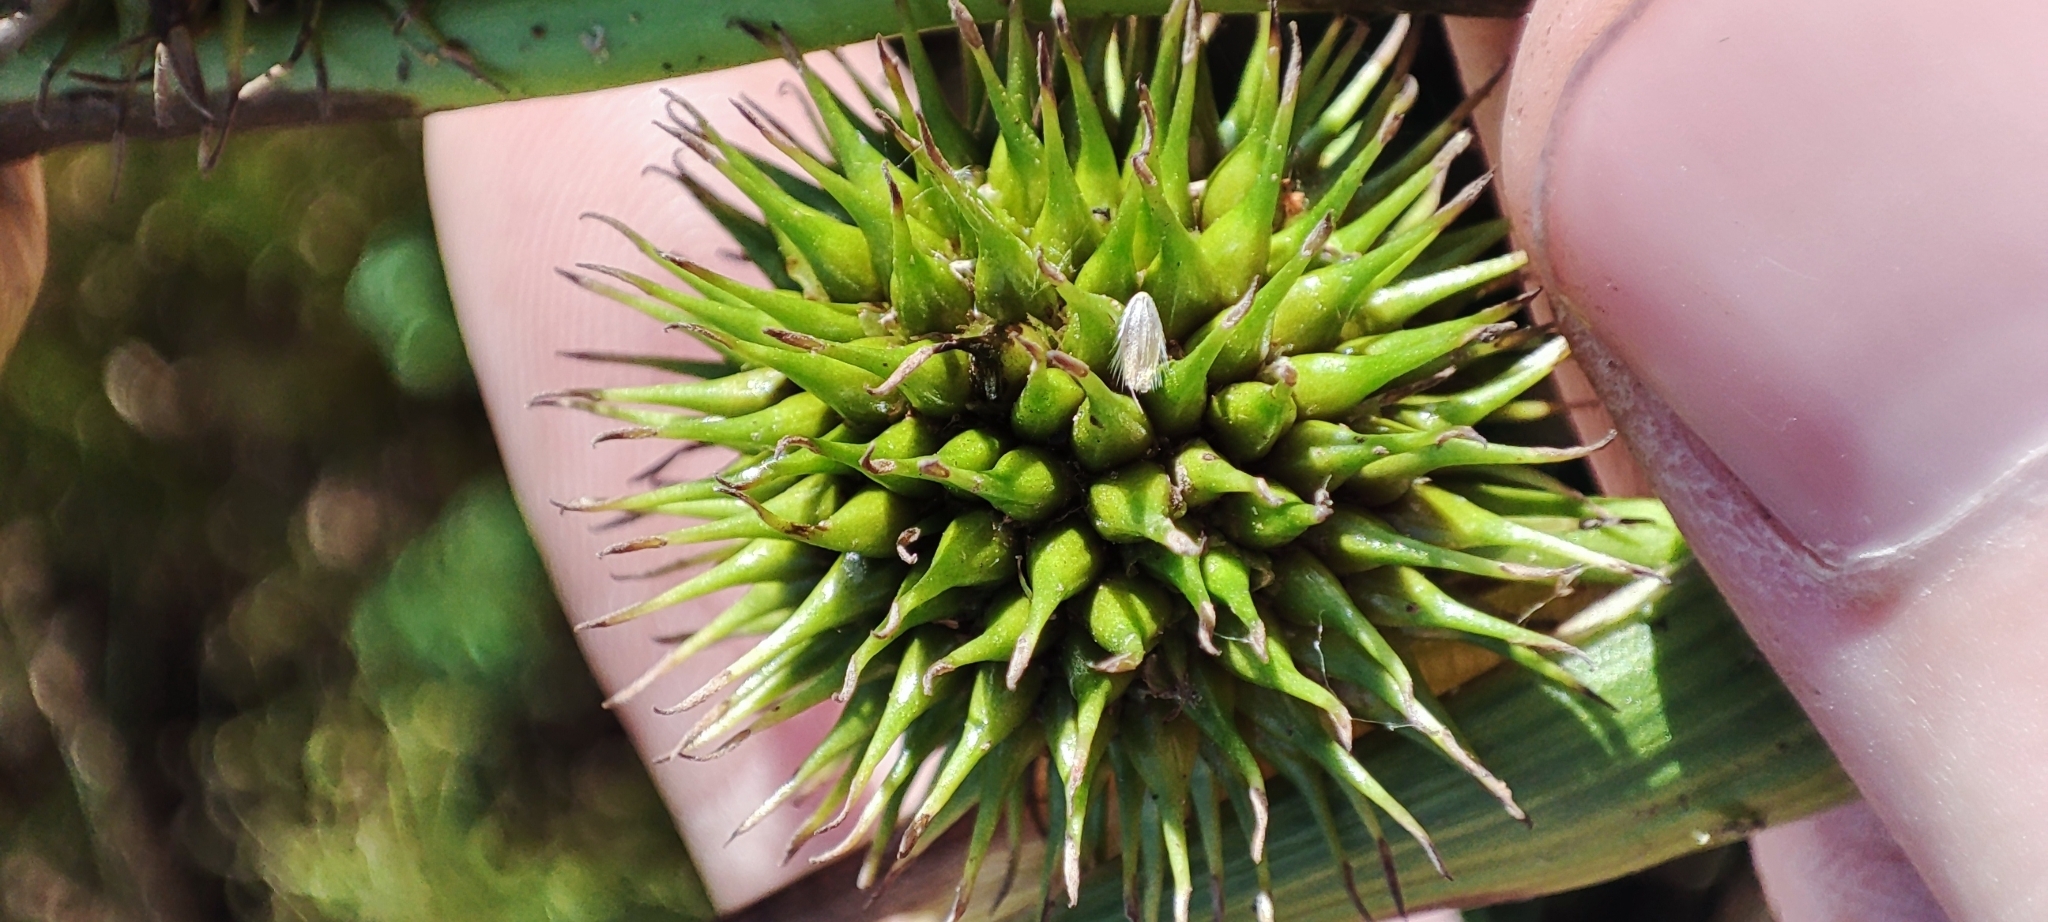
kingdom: Plantae
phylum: Tracheophyta
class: Liliopsida
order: Poales
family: Typhaceae
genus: Sparganium
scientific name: Sparganium emersum
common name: Unbranched bur-reed
